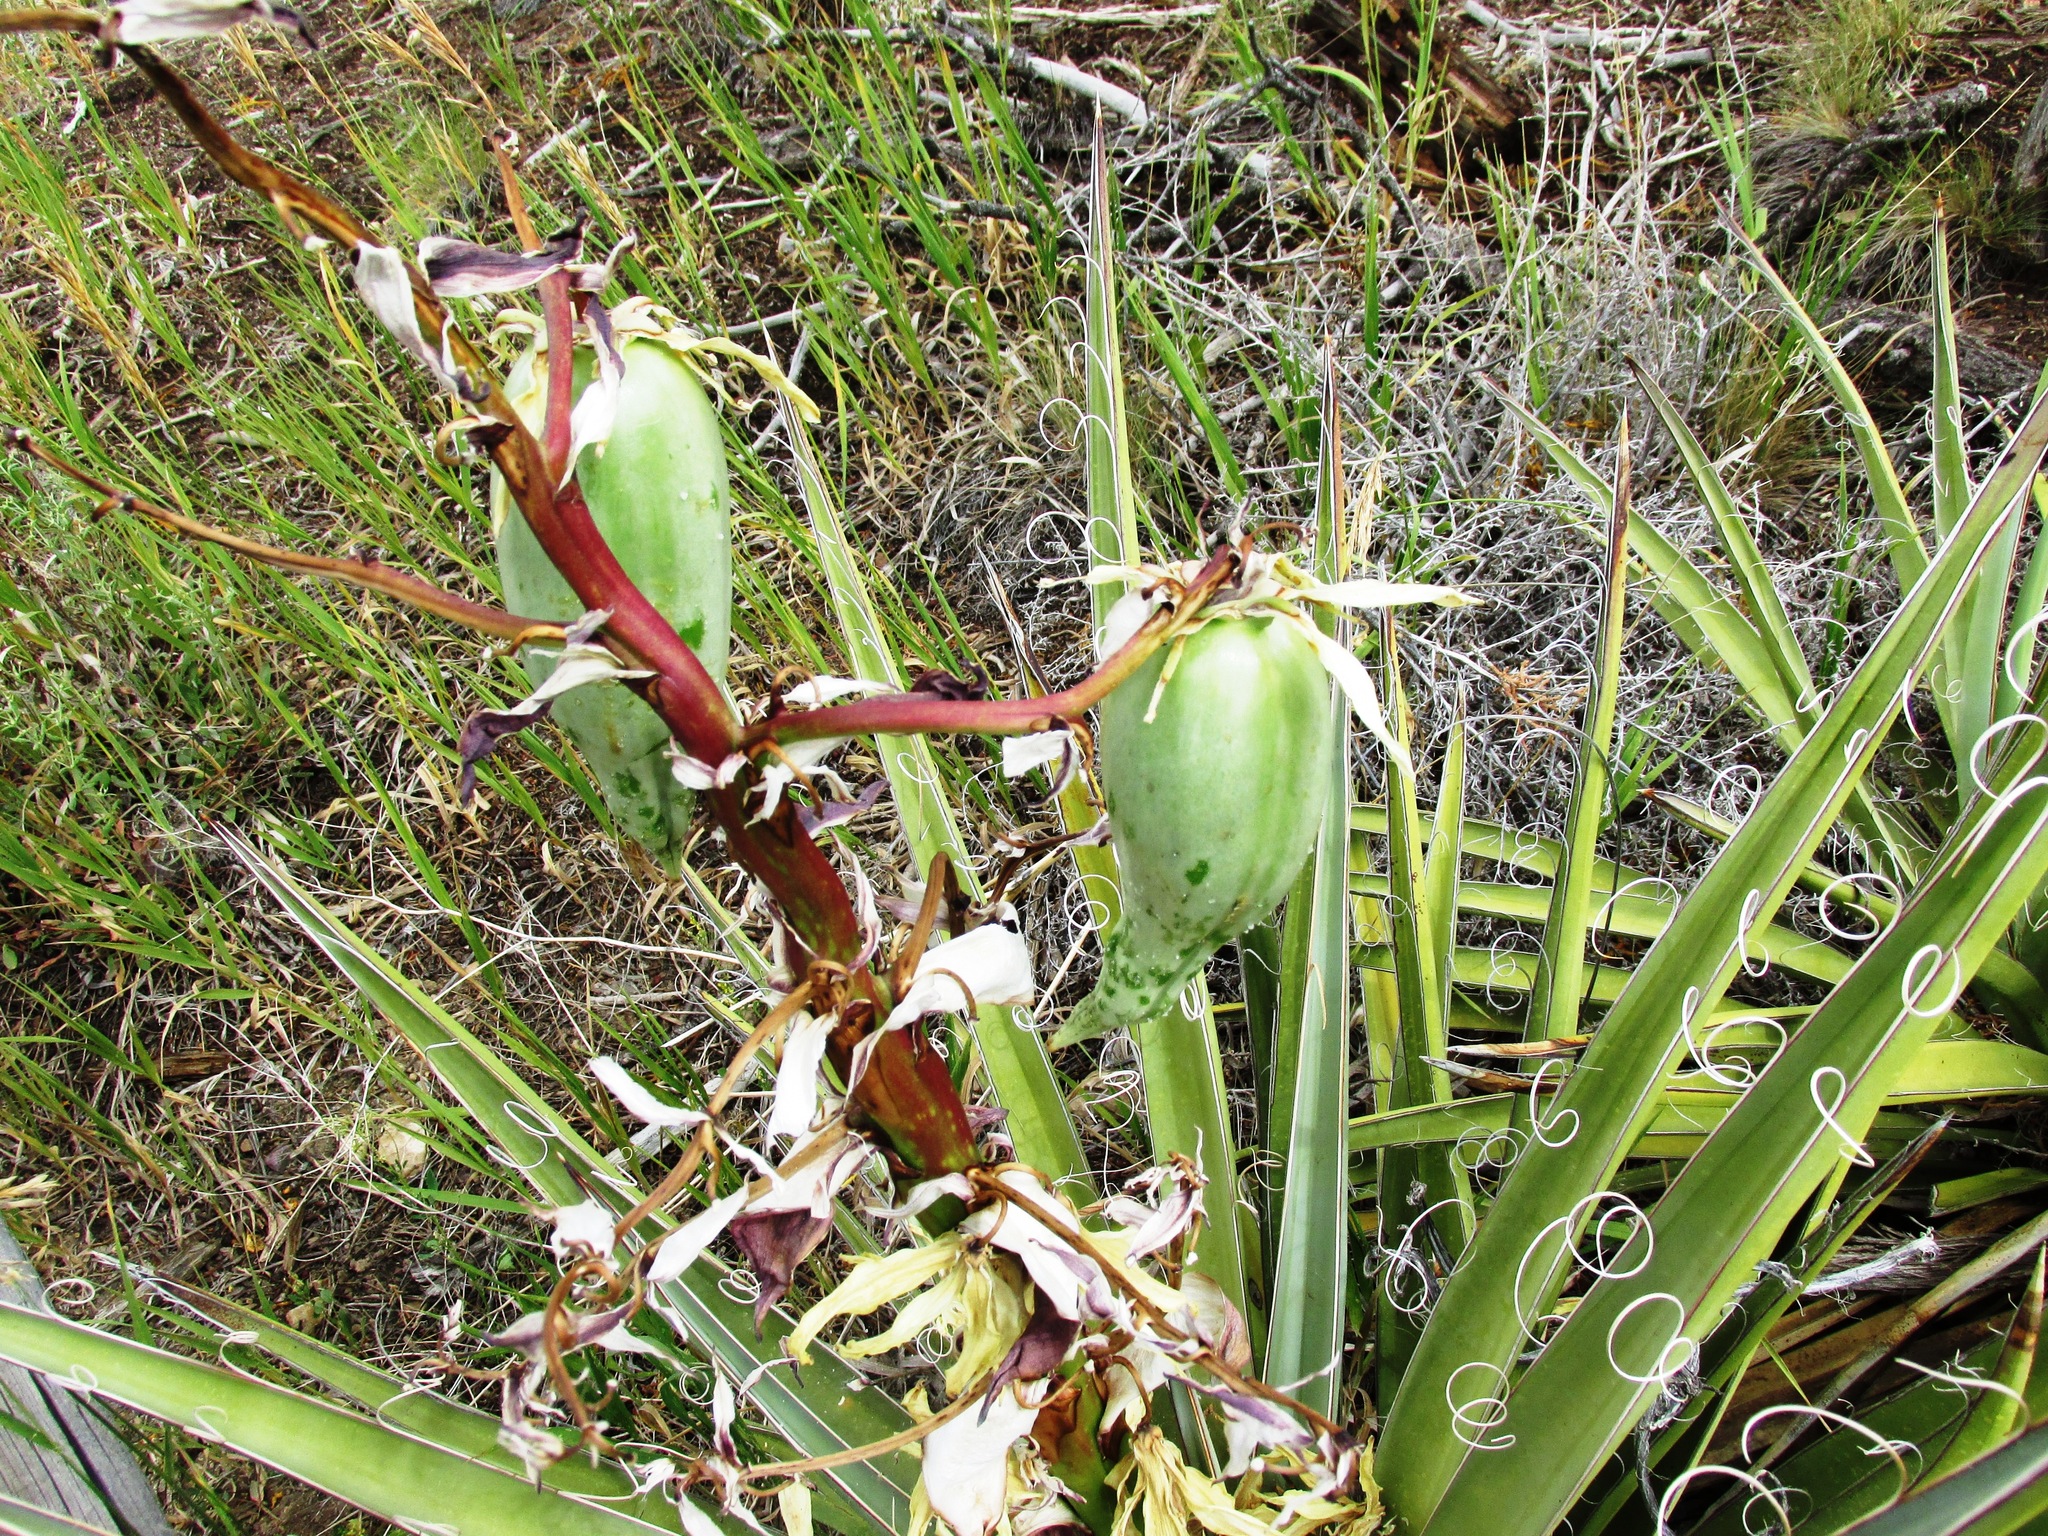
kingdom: Plantae
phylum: Tracheophyta
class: Liliopsida
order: Asparagales
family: Asparagaceae
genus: Yucca
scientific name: Yucca baccata
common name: Banana yucca
